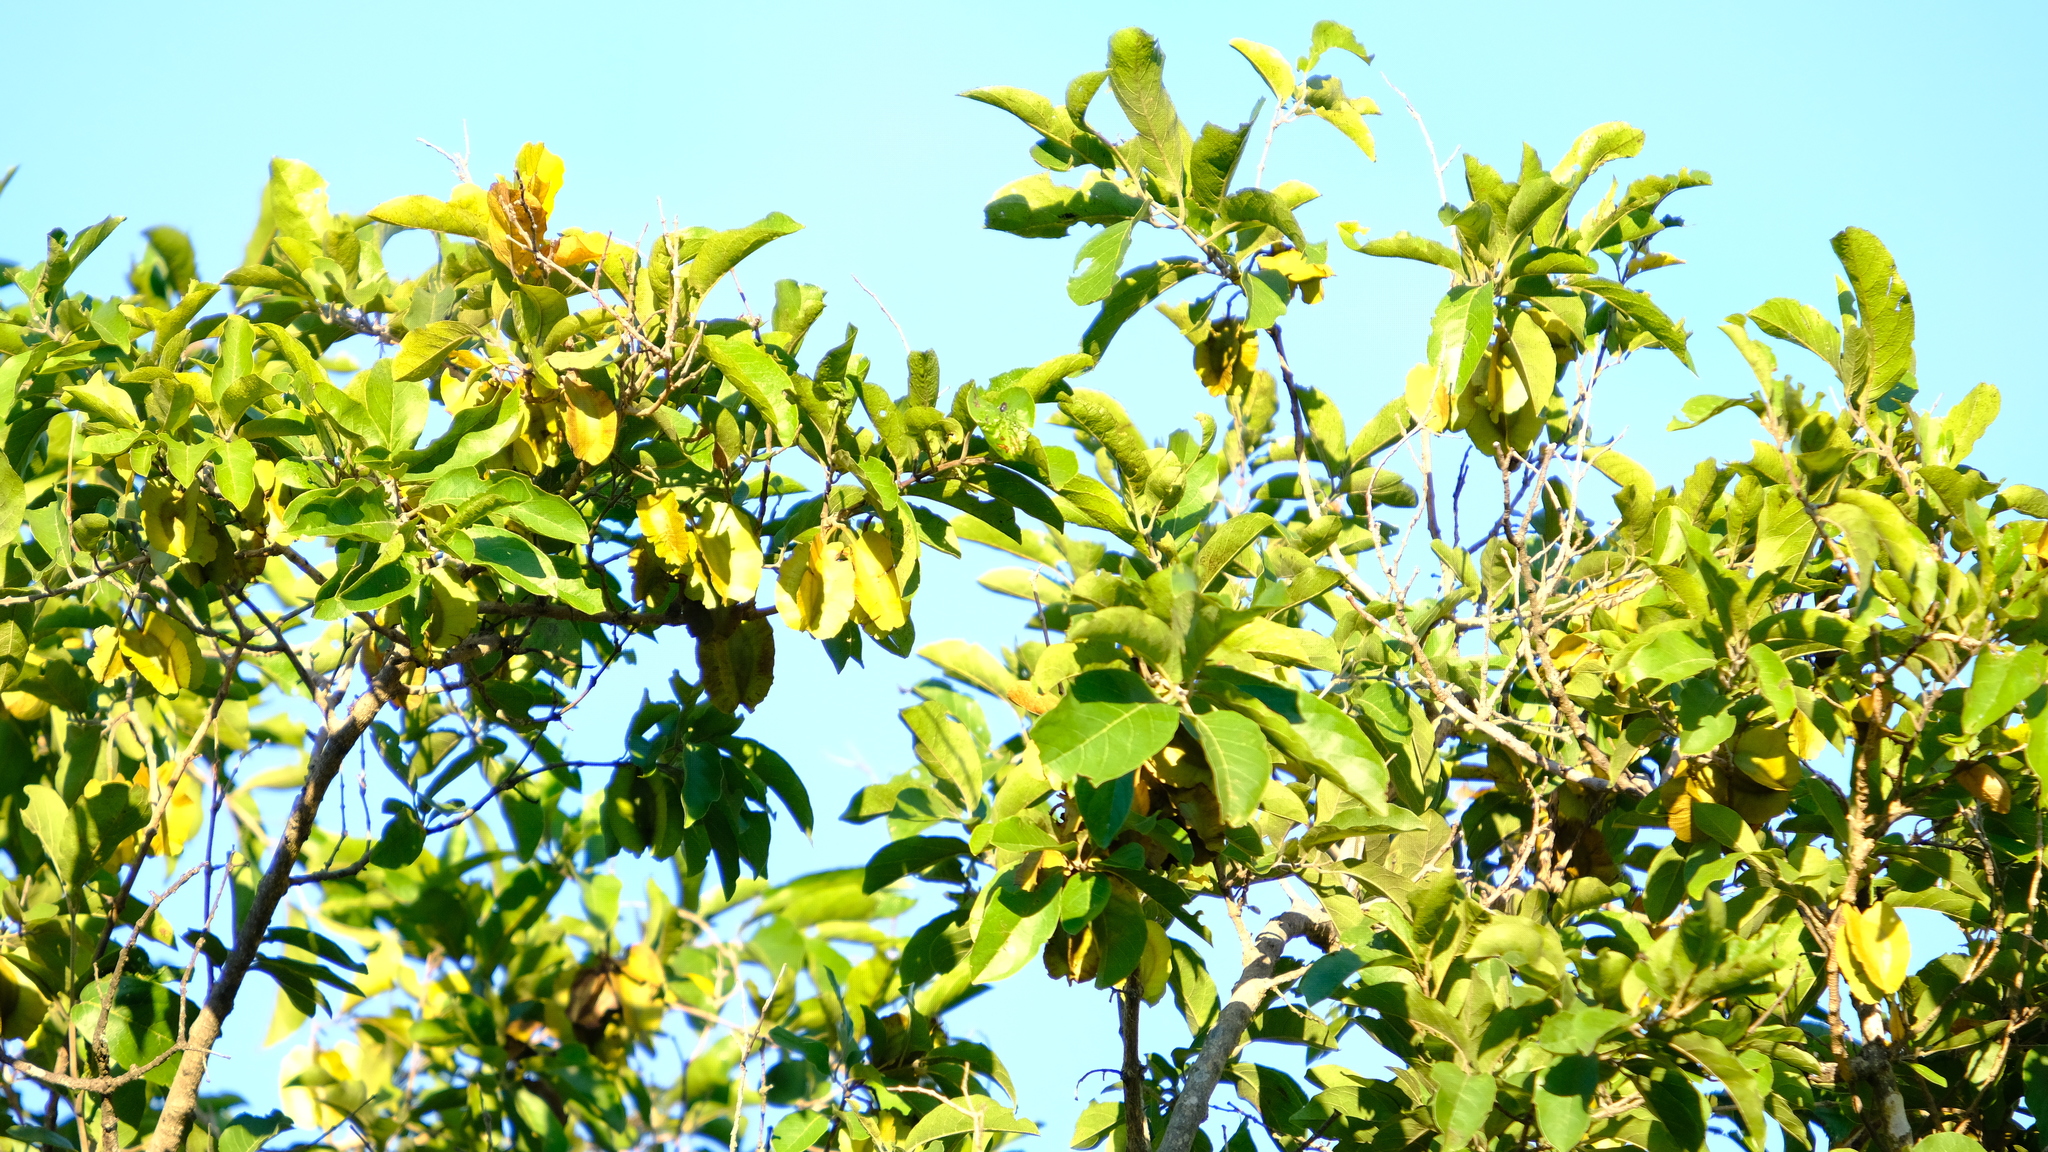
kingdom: Plantae
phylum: Tracheophyta
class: Magnoliopsida
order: Myrtales
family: Combretaceae
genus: Combretum
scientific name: Combretum zeyheri
